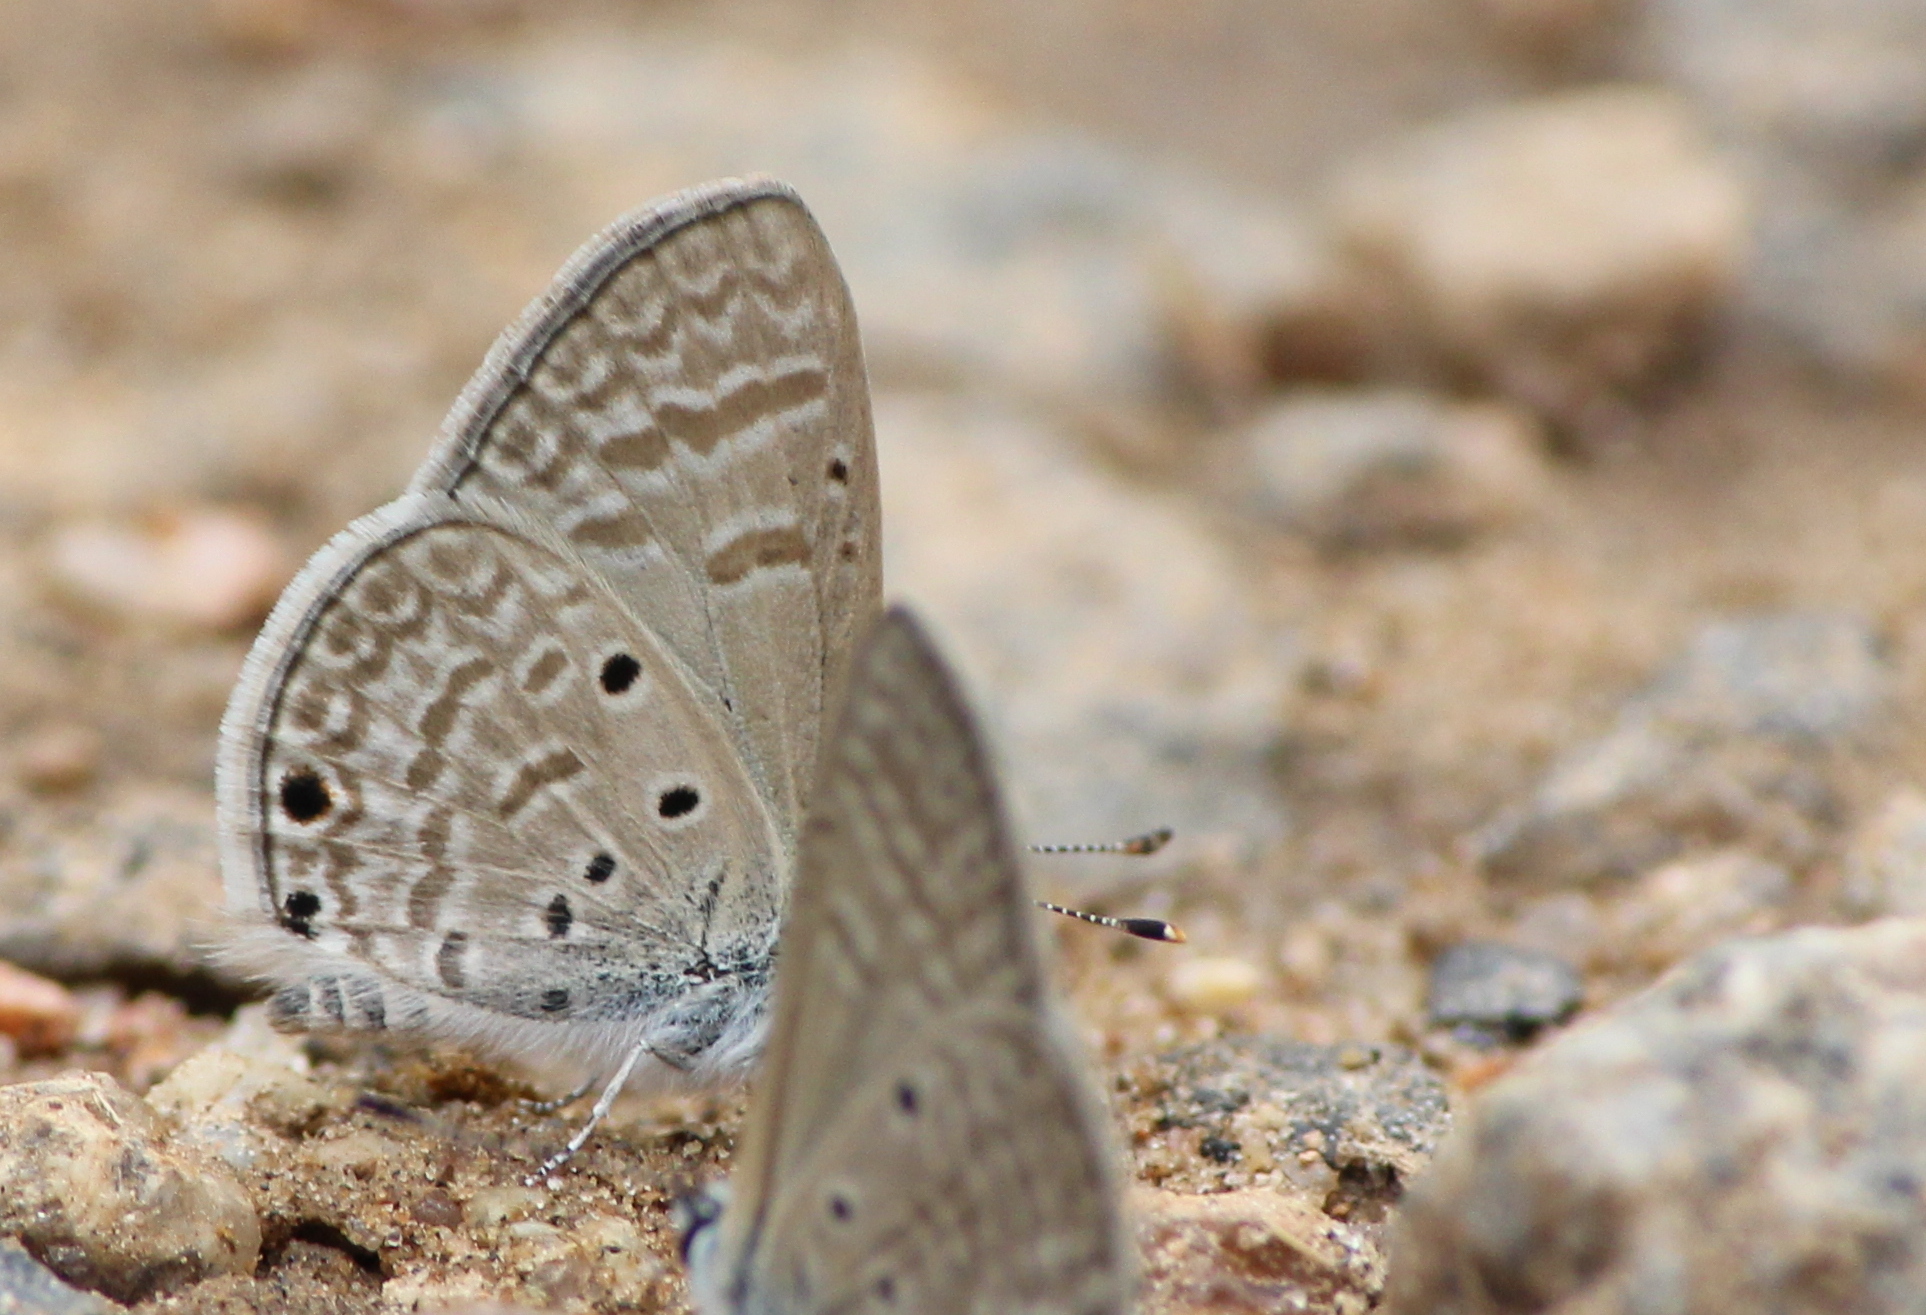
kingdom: Animalia
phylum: Arthropoda
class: Insecta
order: Lepidoptera
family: Lycaenidae
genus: Azanus
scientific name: Azanus ubaldus
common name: Desert babul blue
